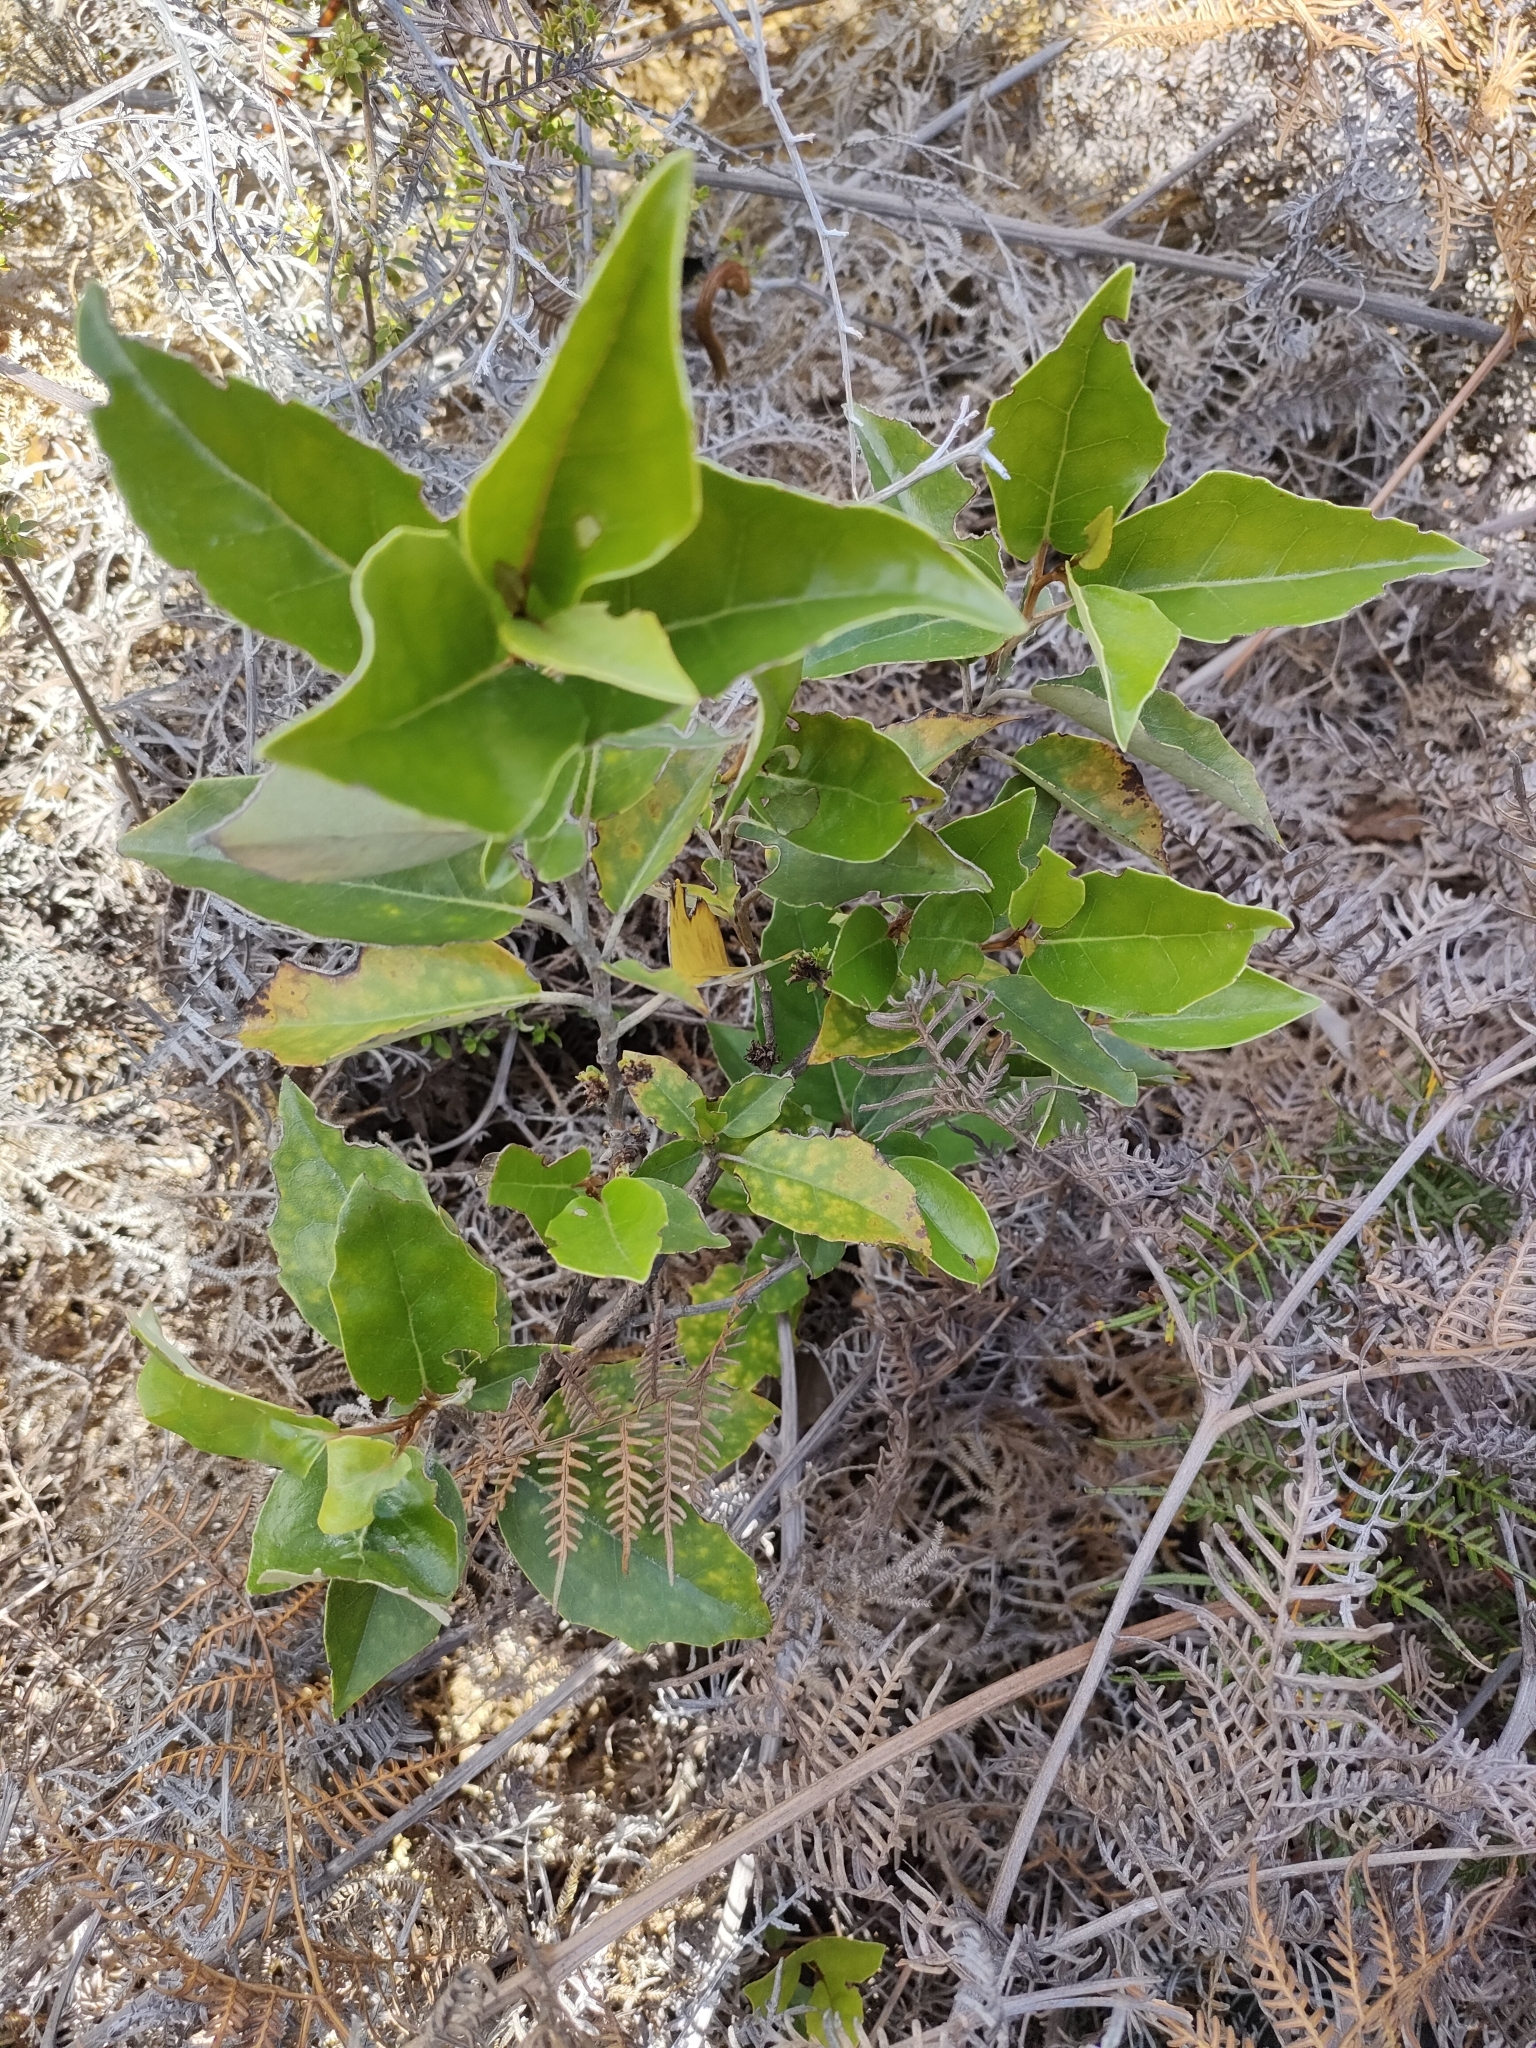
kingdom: Plantae
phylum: Tracheophyta
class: Magnoliopsida
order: Asterales
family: Asteraceae
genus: Olearia
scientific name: Olearia arborescens
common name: Glossy tree daisy
